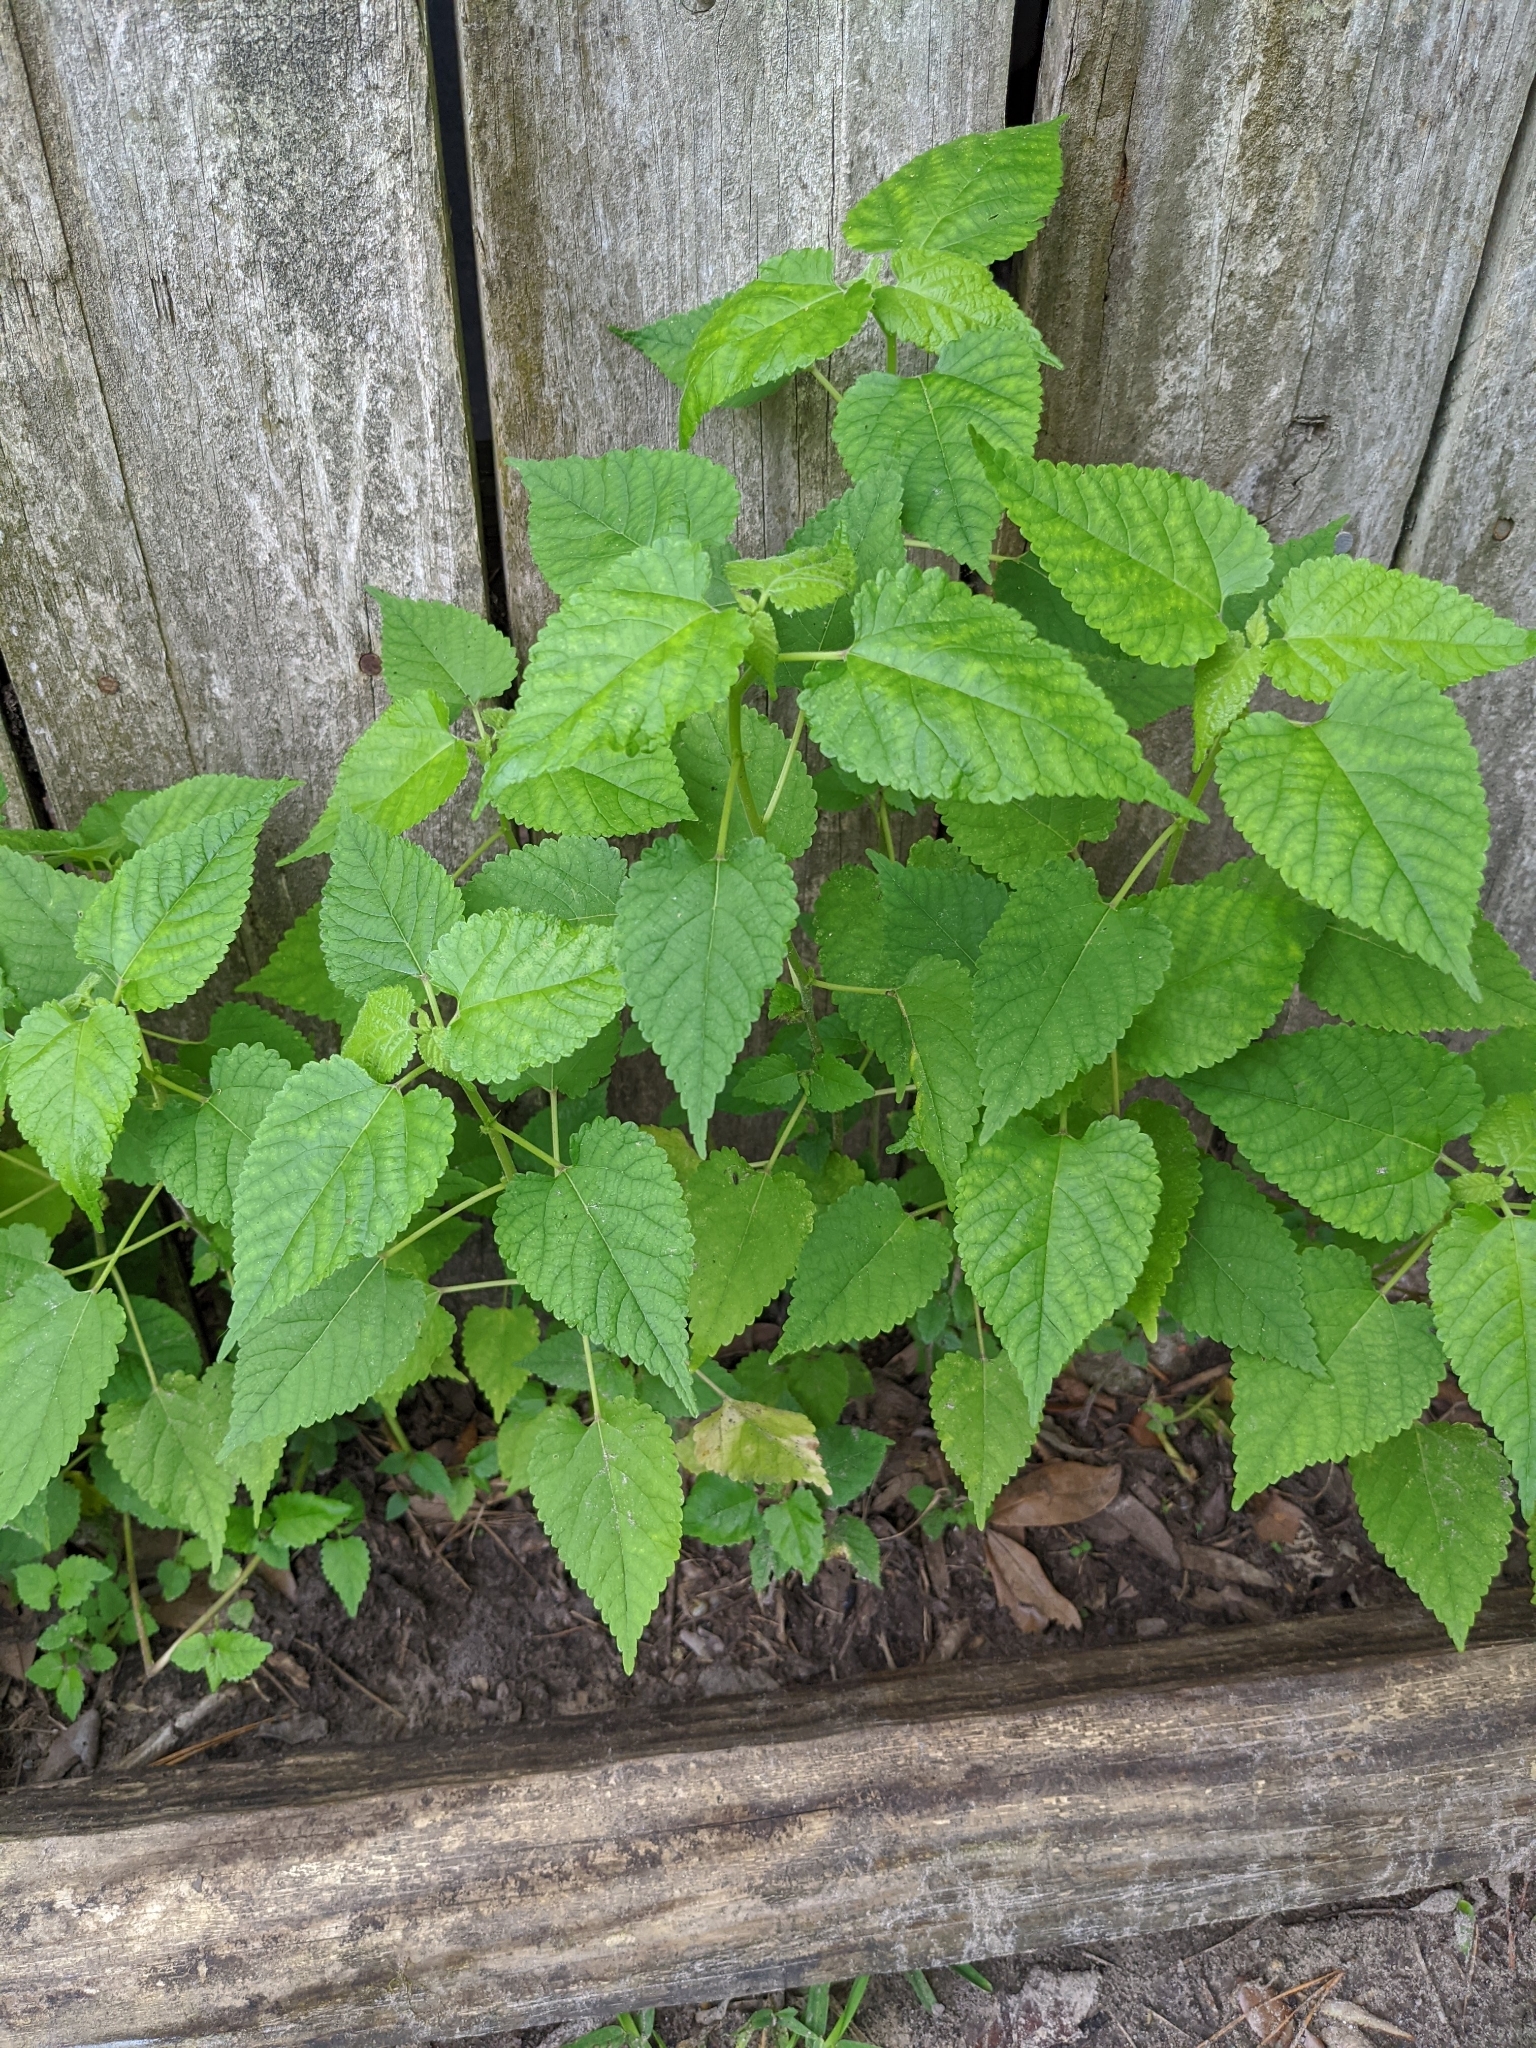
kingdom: Plantae
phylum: Tracheophyta
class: Magnoliopsida
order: Rosales
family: Moraceae
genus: Fatoua
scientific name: Fatoua villosa
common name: Hairy crabweed
